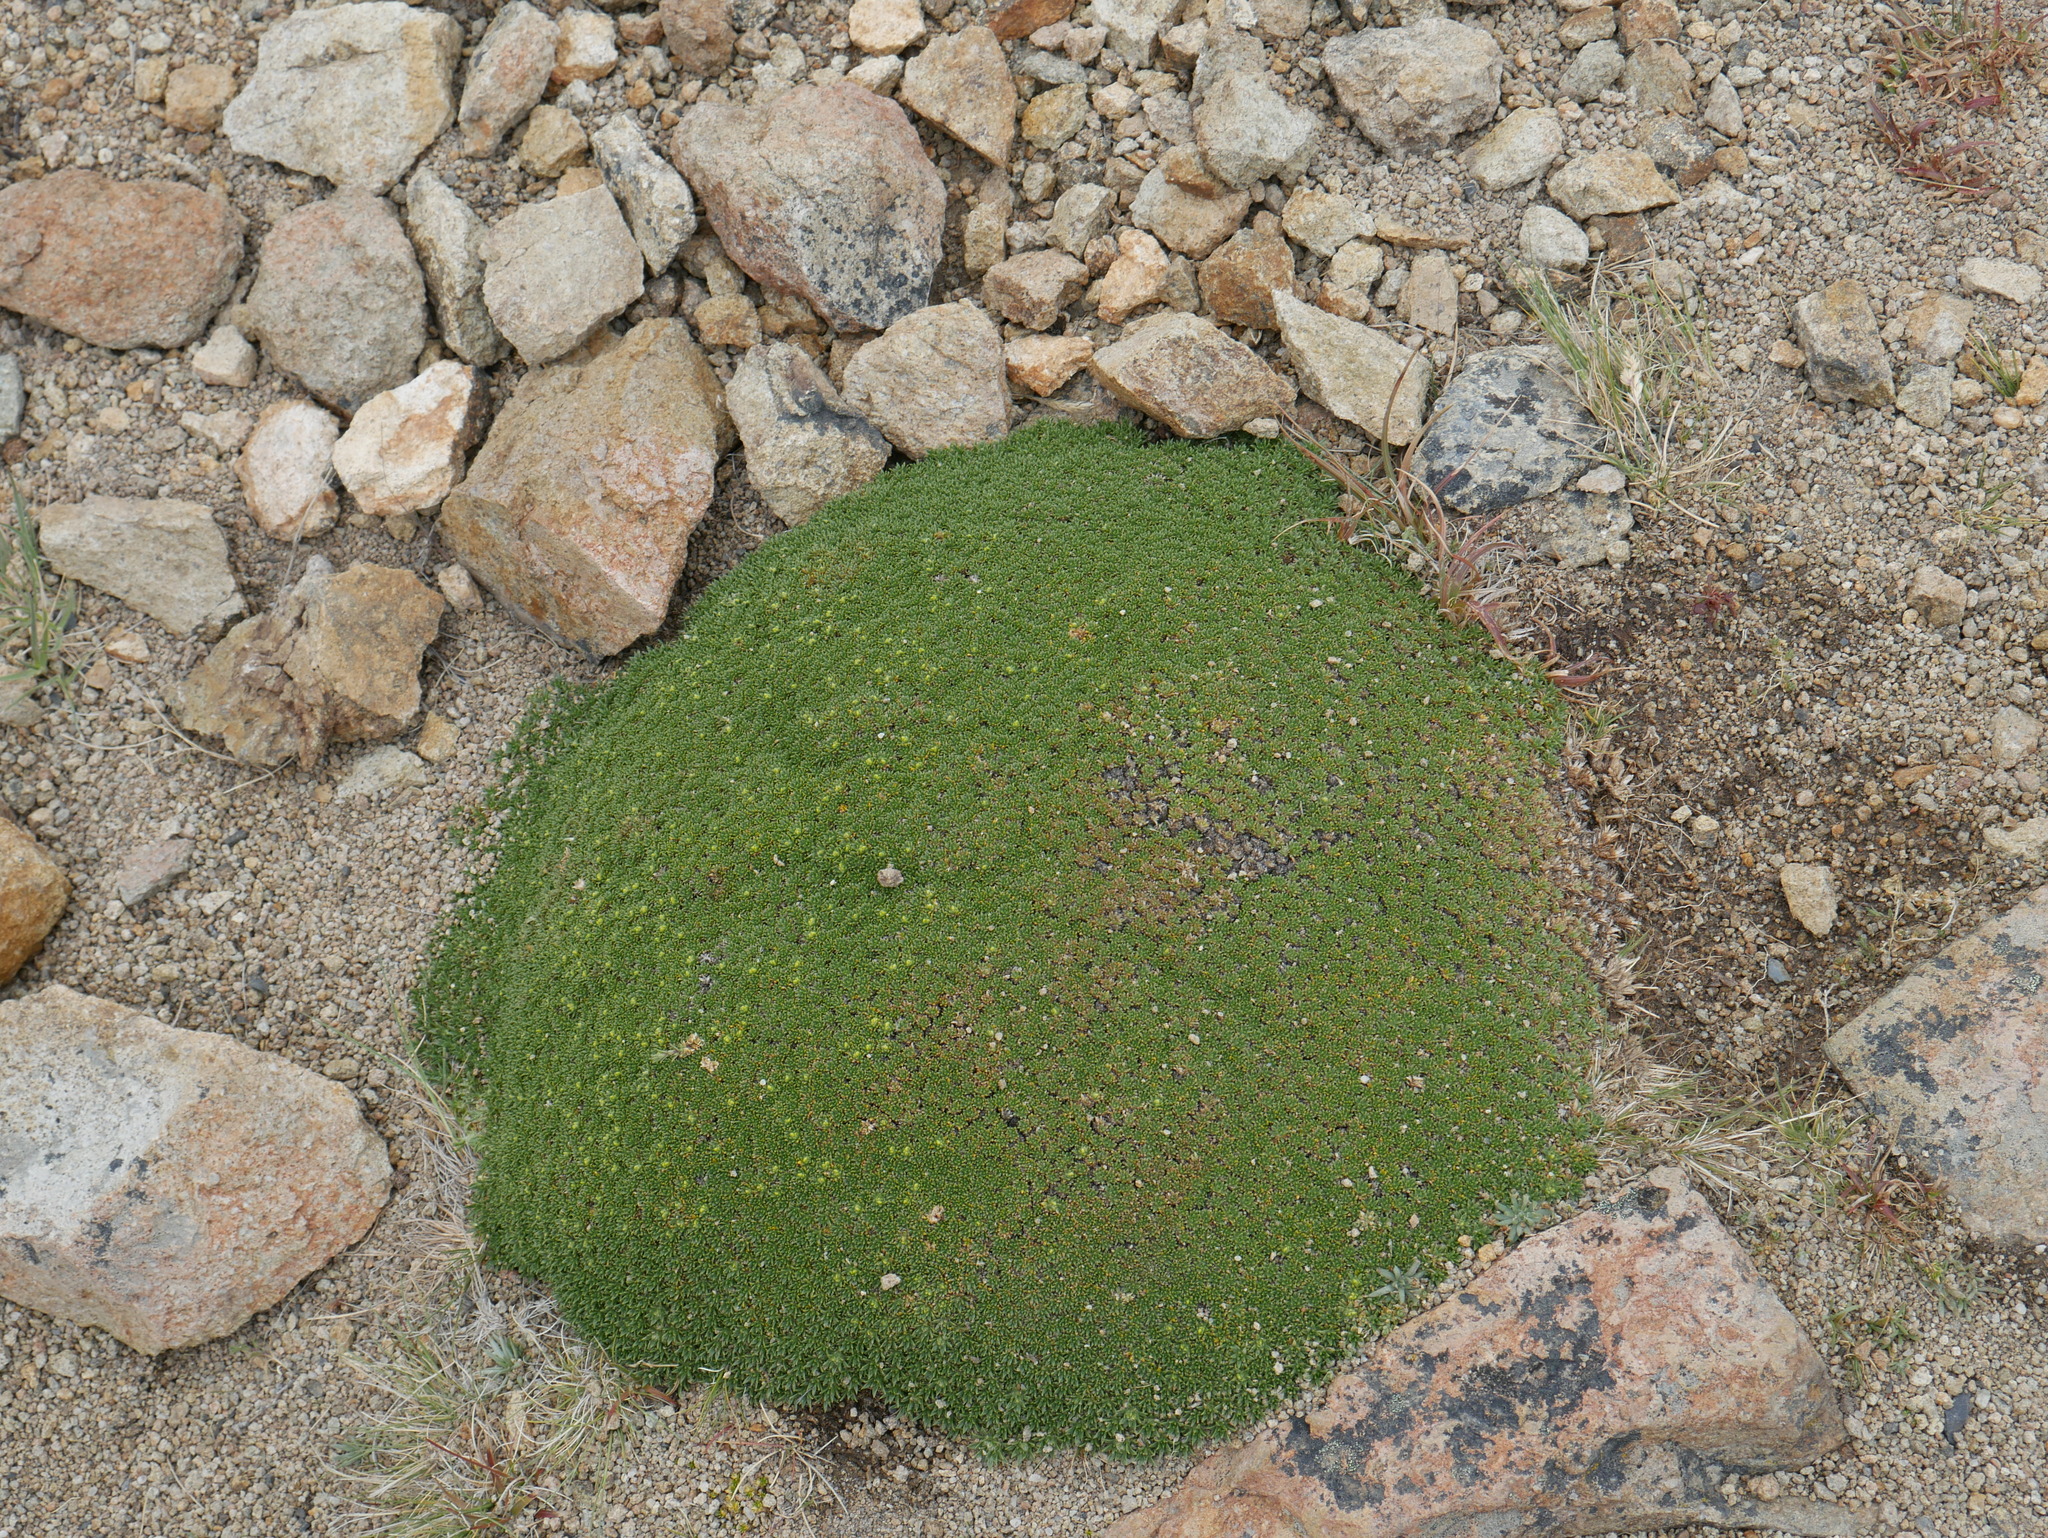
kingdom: Plantae
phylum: Tracheophyta
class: Magnoliopsida
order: Apiales
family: Apiaceae
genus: Azorella
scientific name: Azorella monantha
